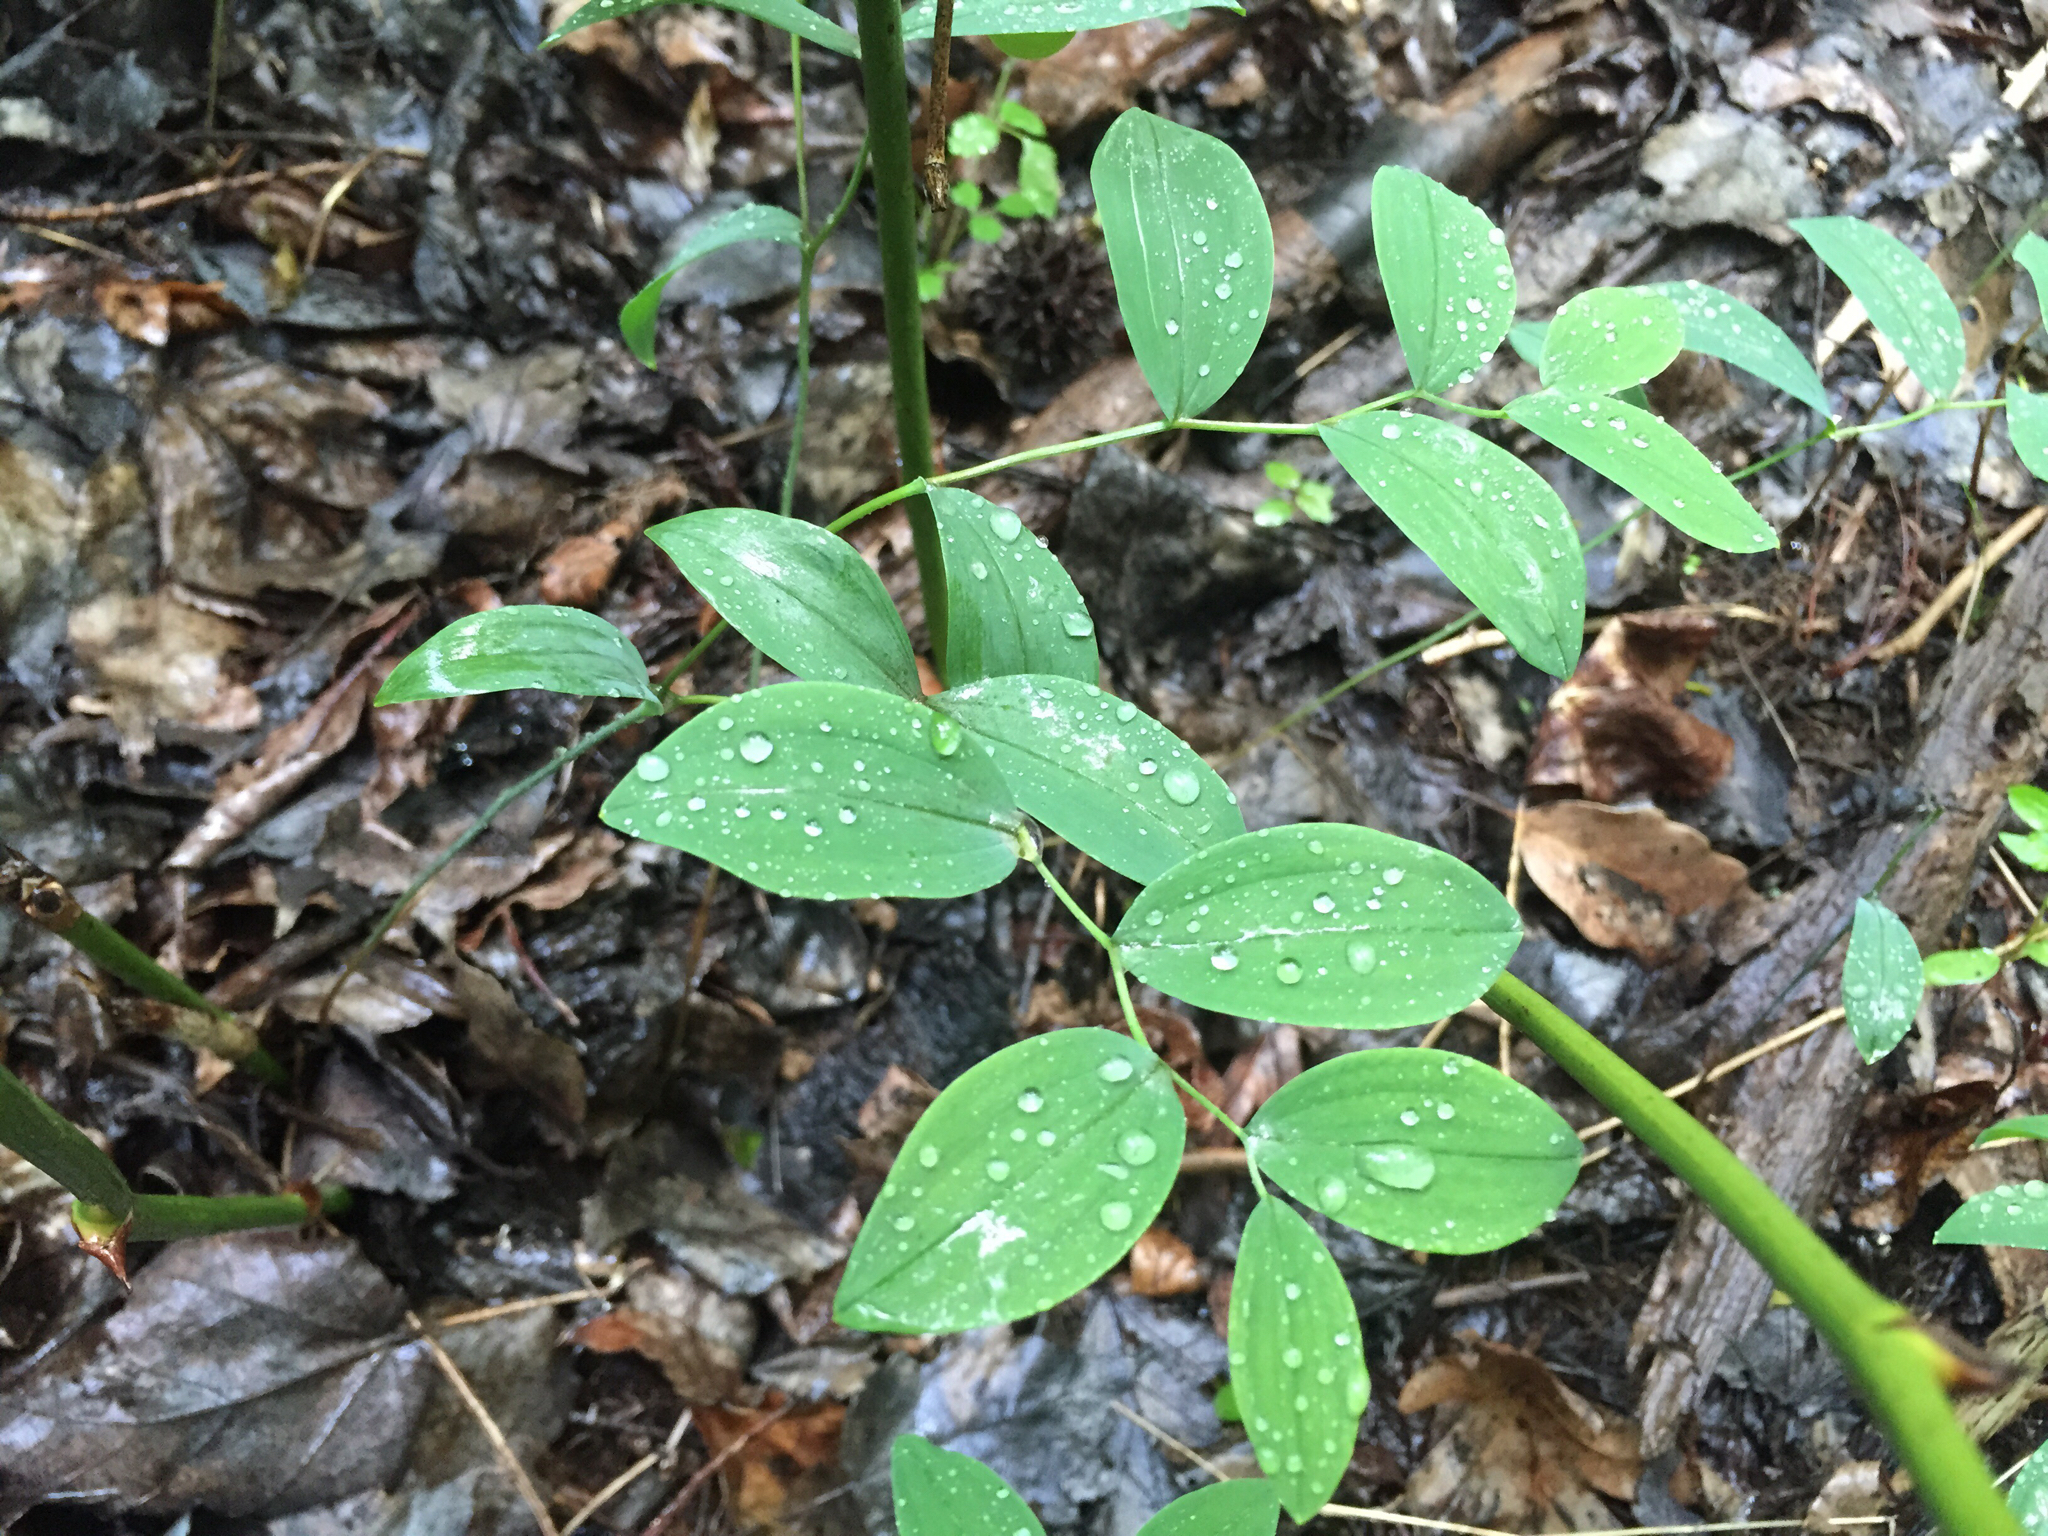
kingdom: Plantae
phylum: Tracheophyta
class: Liliopsida
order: Liliales
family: Colchicaceae
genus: Uvularia
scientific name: Uvularia sessilifolia
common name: Straw-lily
